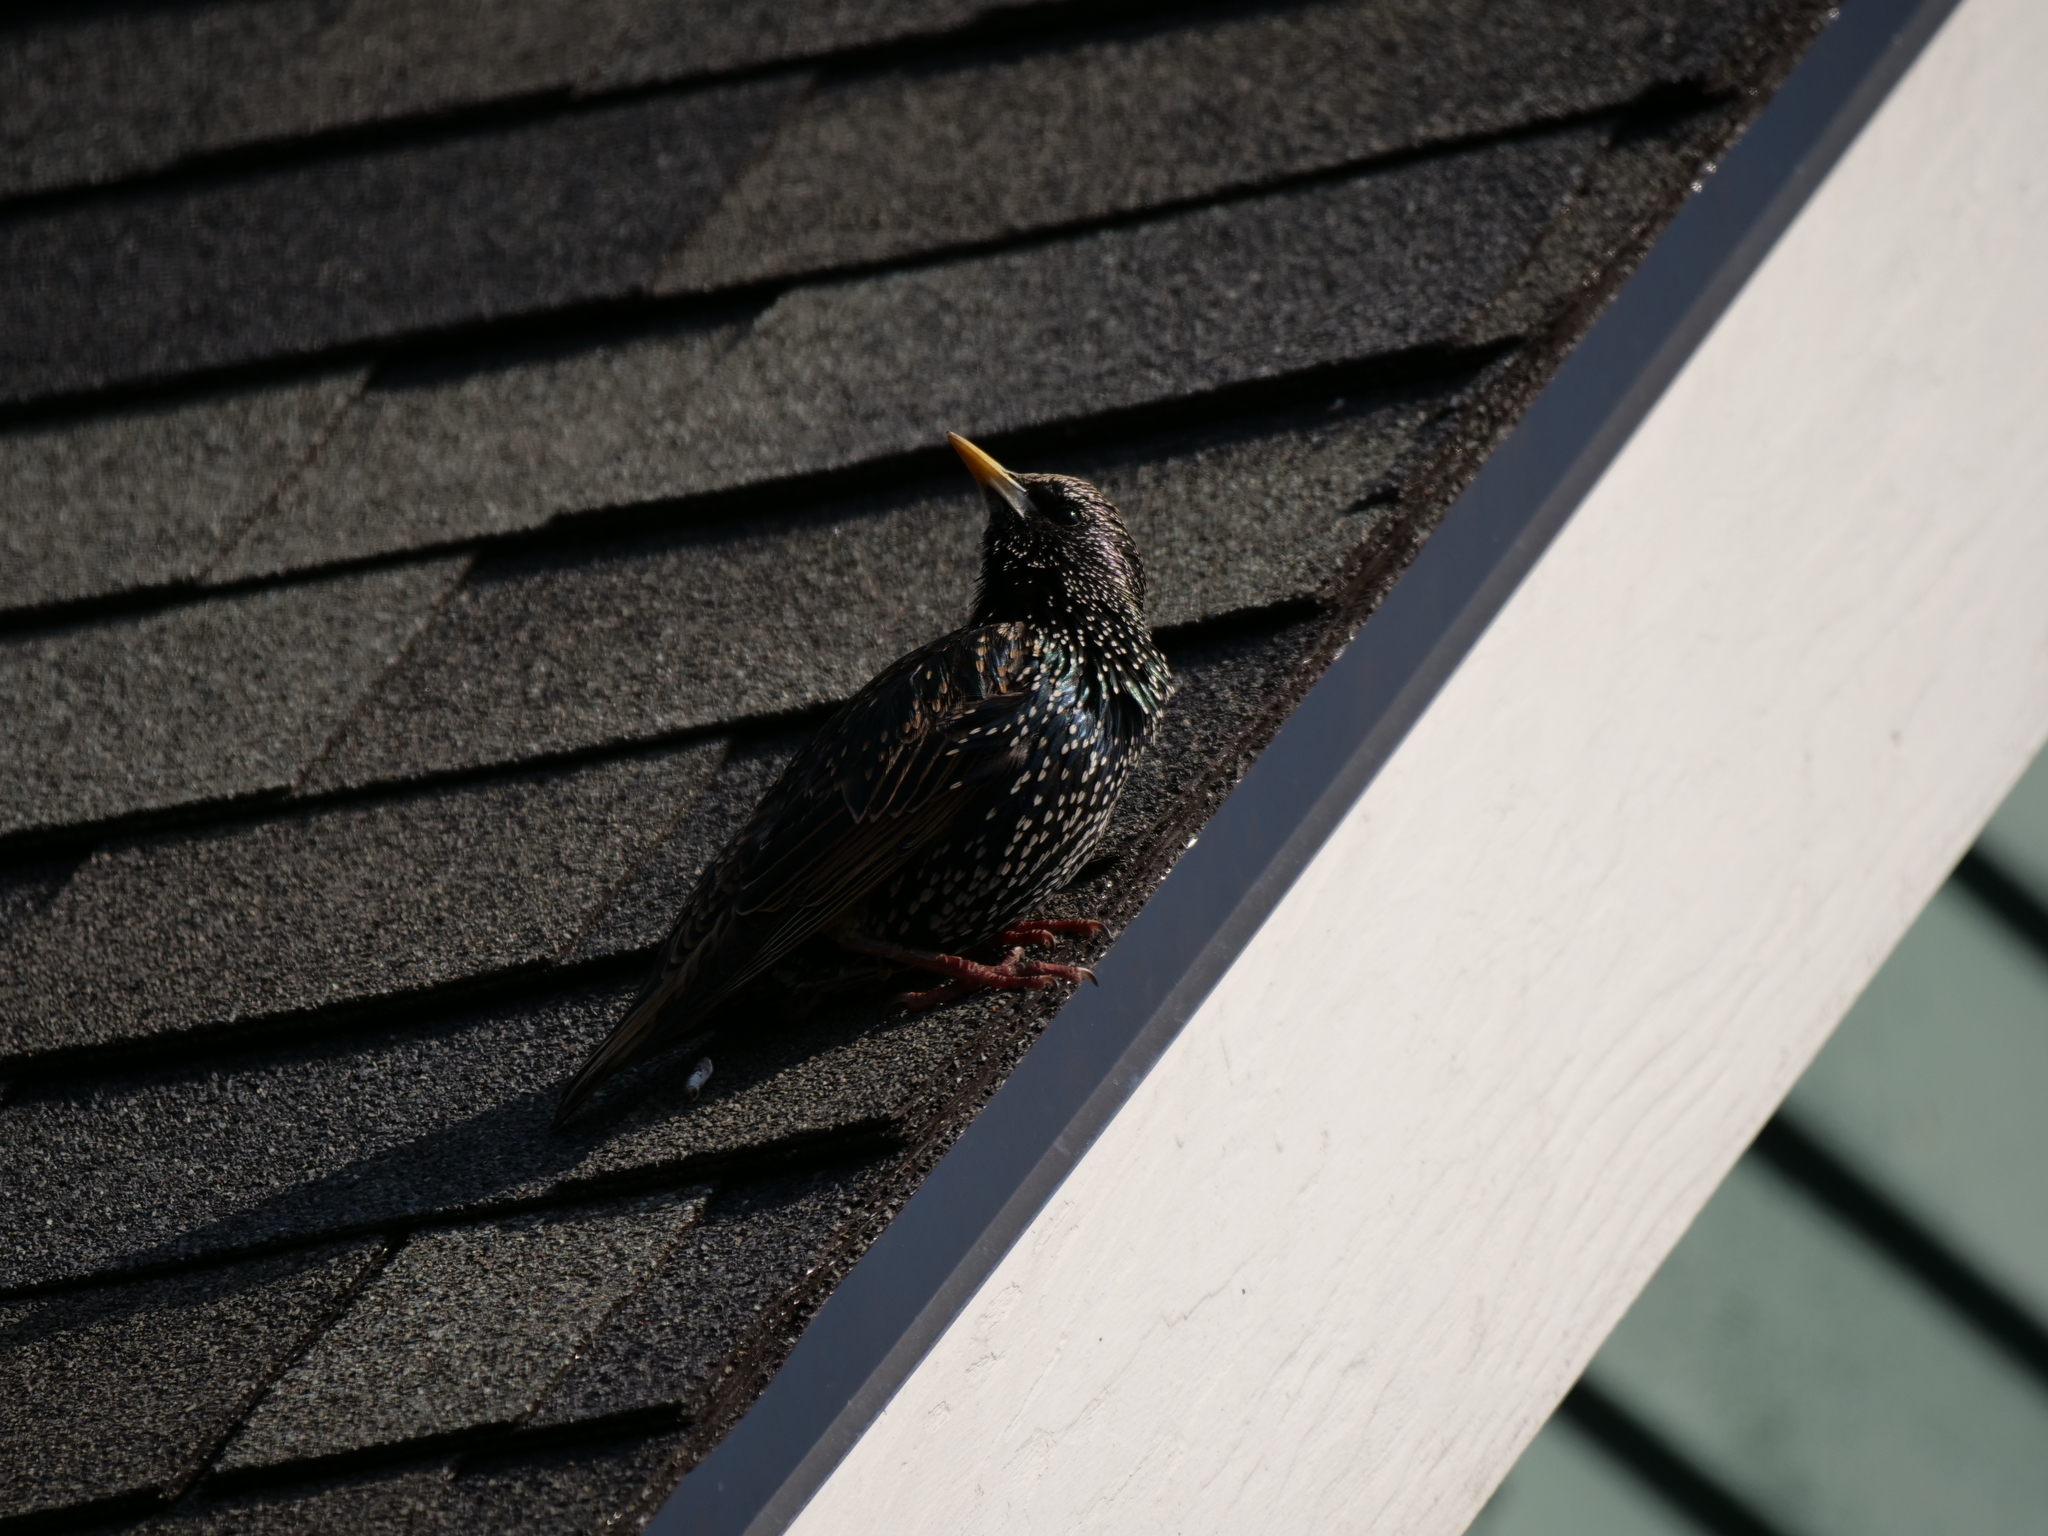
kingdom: Animalia
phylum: Chordata
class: Aves
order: Passeriformes
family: Sturnidae
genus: Sturnus
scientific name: Sturnus vulgaris
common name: Common starling
